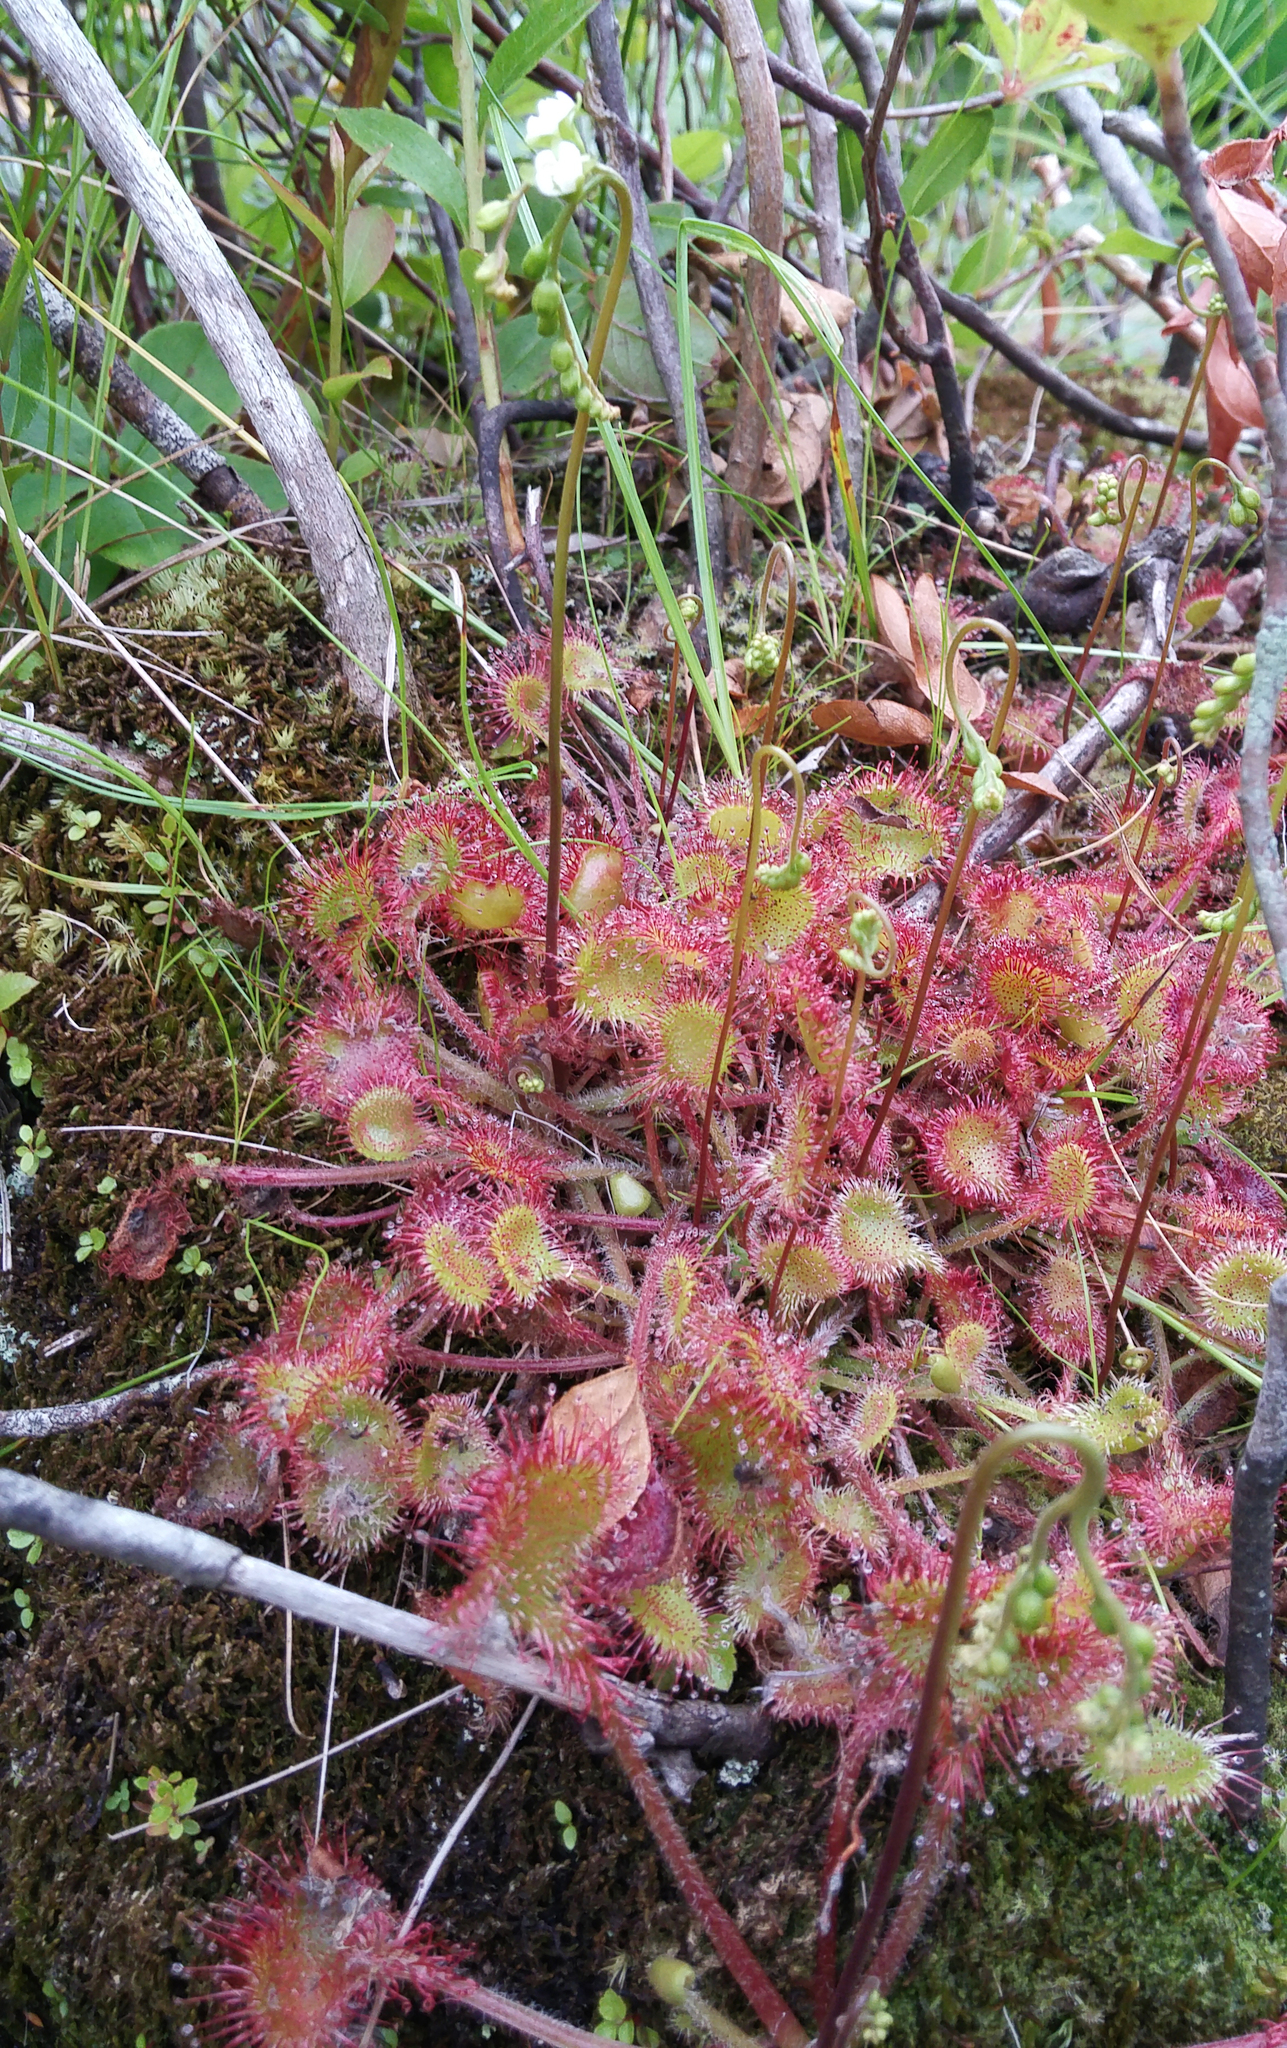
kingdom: Plantae
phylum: Tracheophyta
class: Magnoliopsida
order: Caryophyllales
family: Droseraceae
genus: Drosera
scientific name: Drosera rotundifolia
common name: Round-leaved sundew
